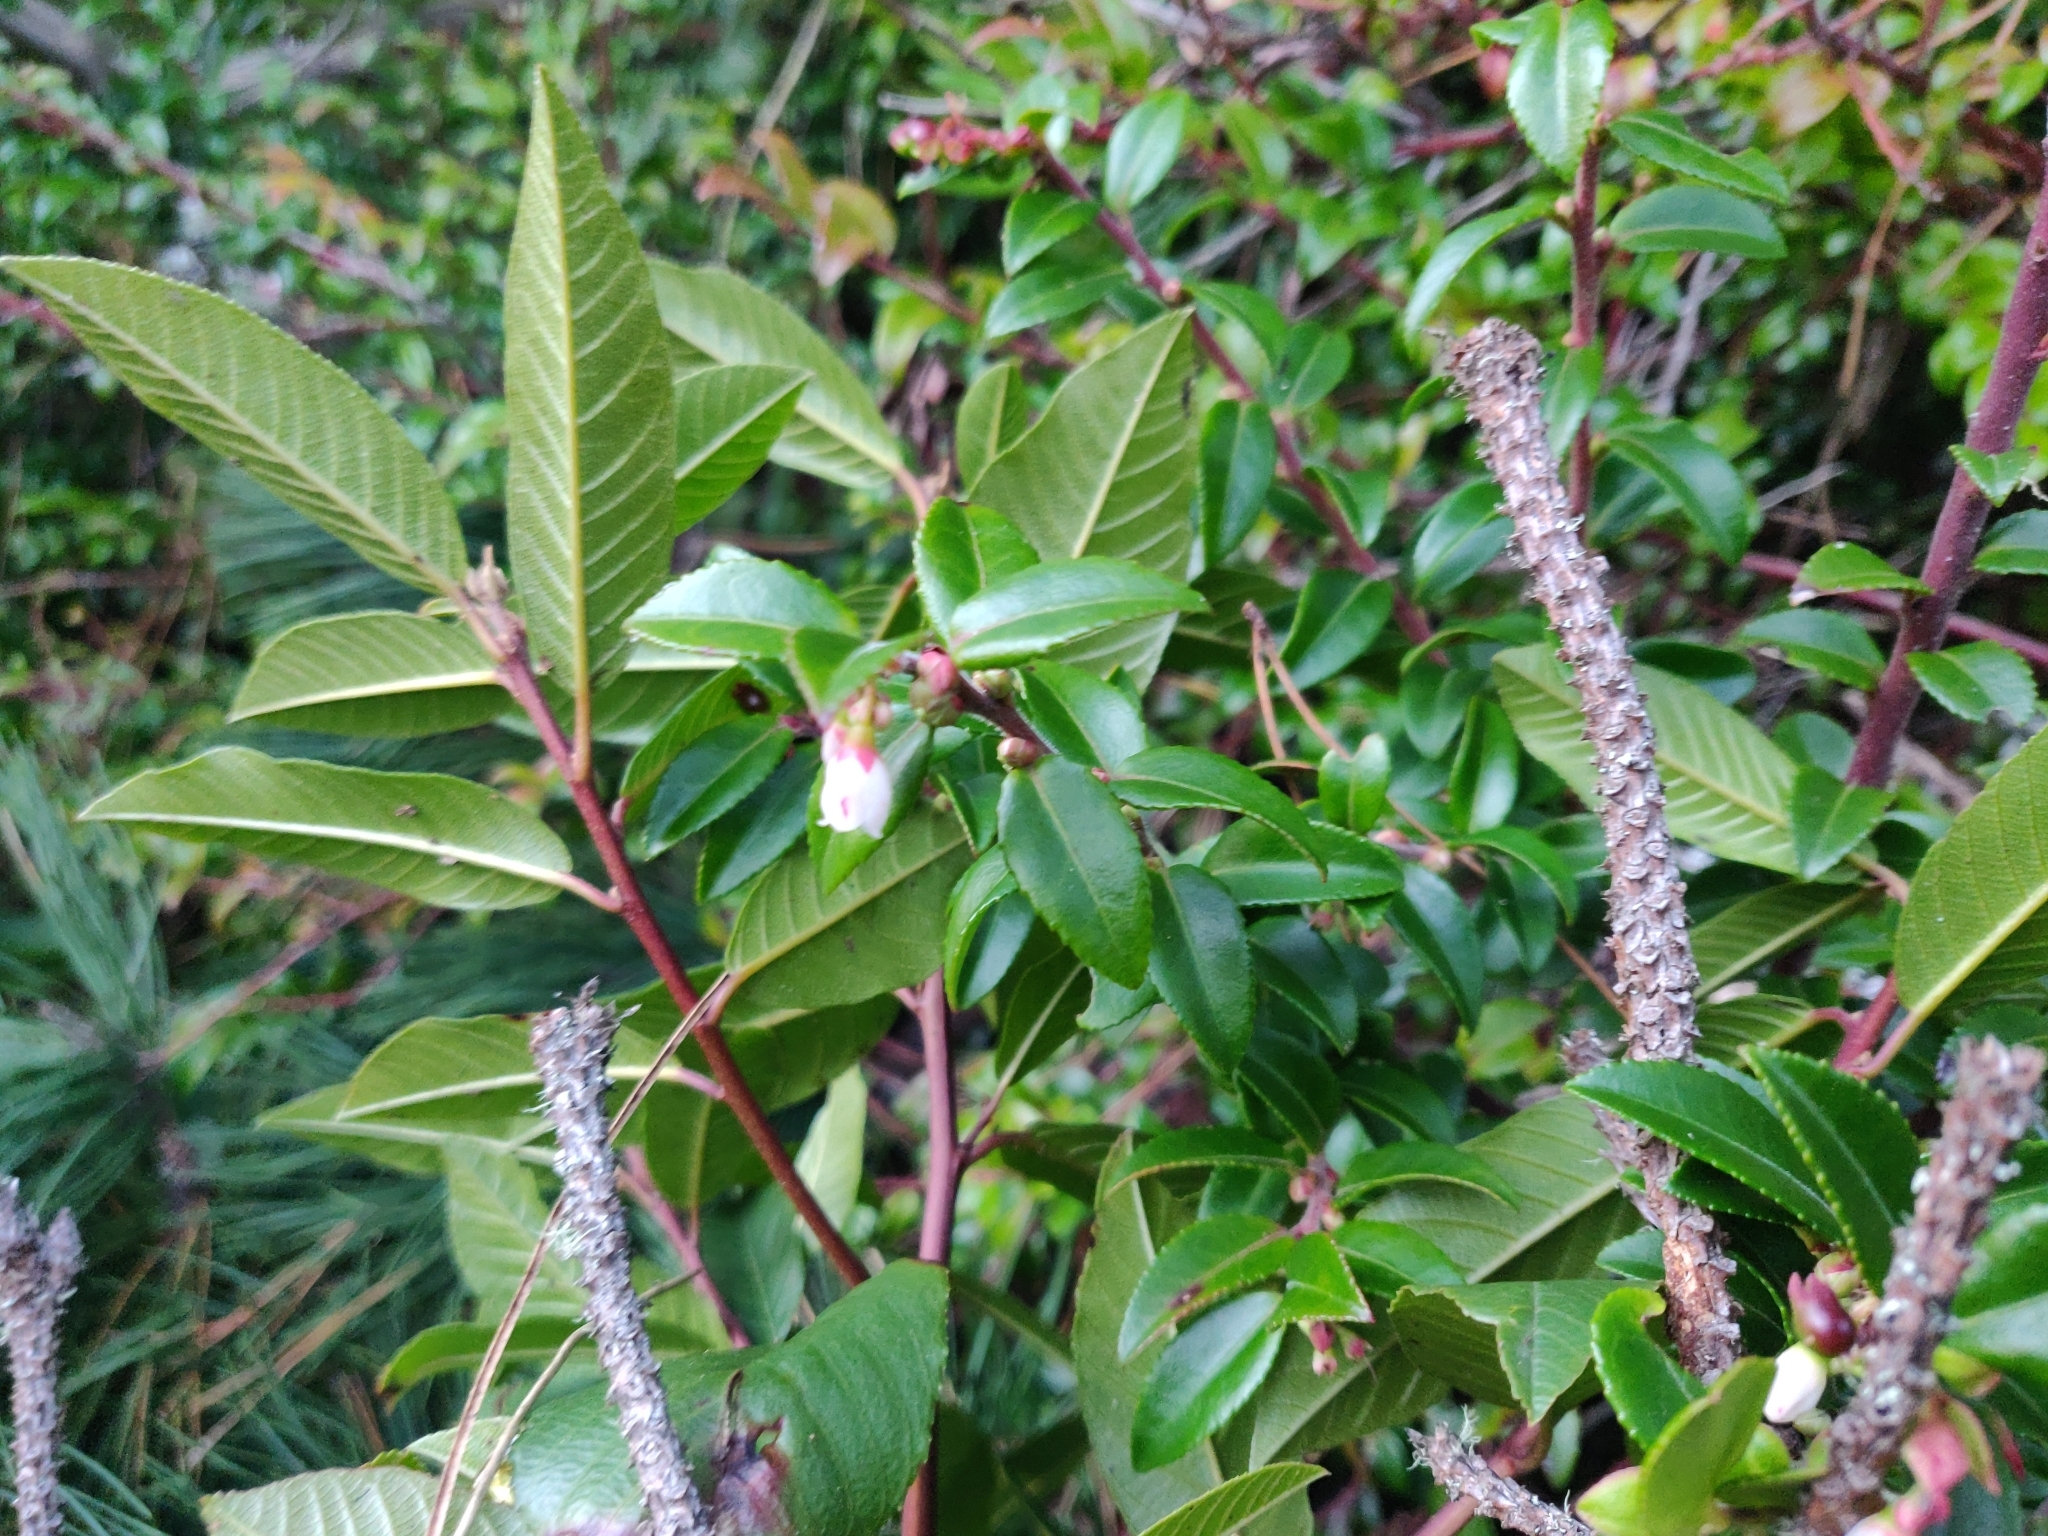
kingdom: Plantae
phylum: Tracheophyta
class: Magnoliopsida
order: Ericales
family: Ericaceae
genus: Vaccinium
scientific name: Vaccinium ovatum
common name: California-huckleberry
